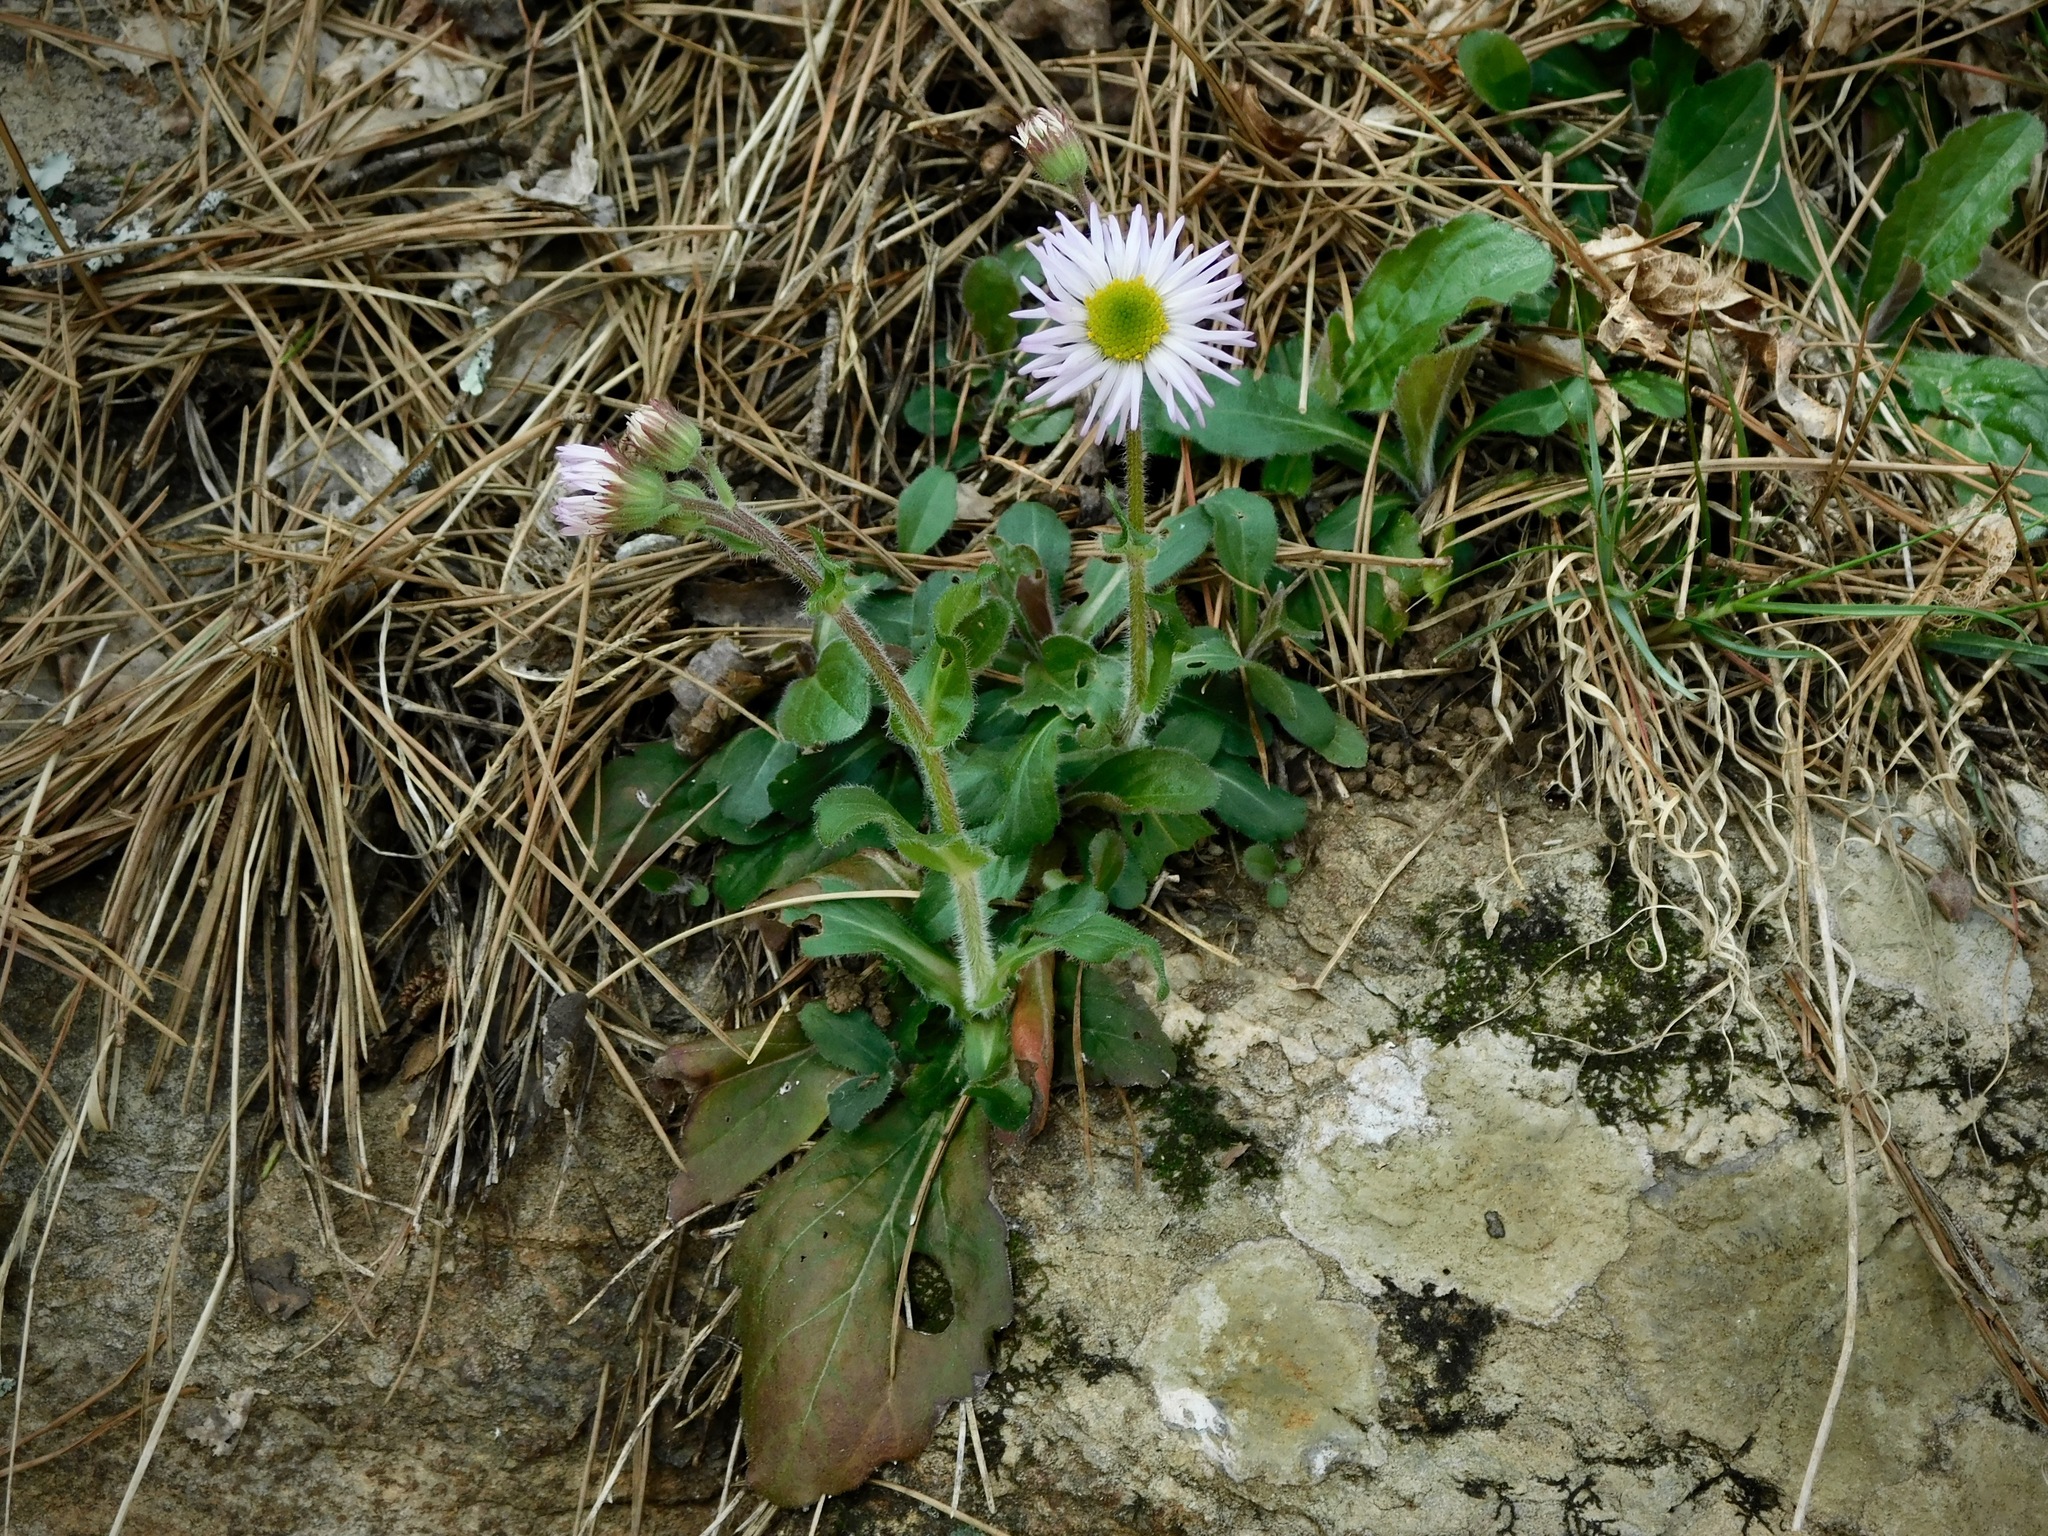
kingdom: Plantae
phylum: Tracheophyta
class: Magnoliopsida
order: Asterales
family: Asteraceae
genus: Erigeron
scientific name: Erigeron pulchellus
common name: Hairy fleabane
